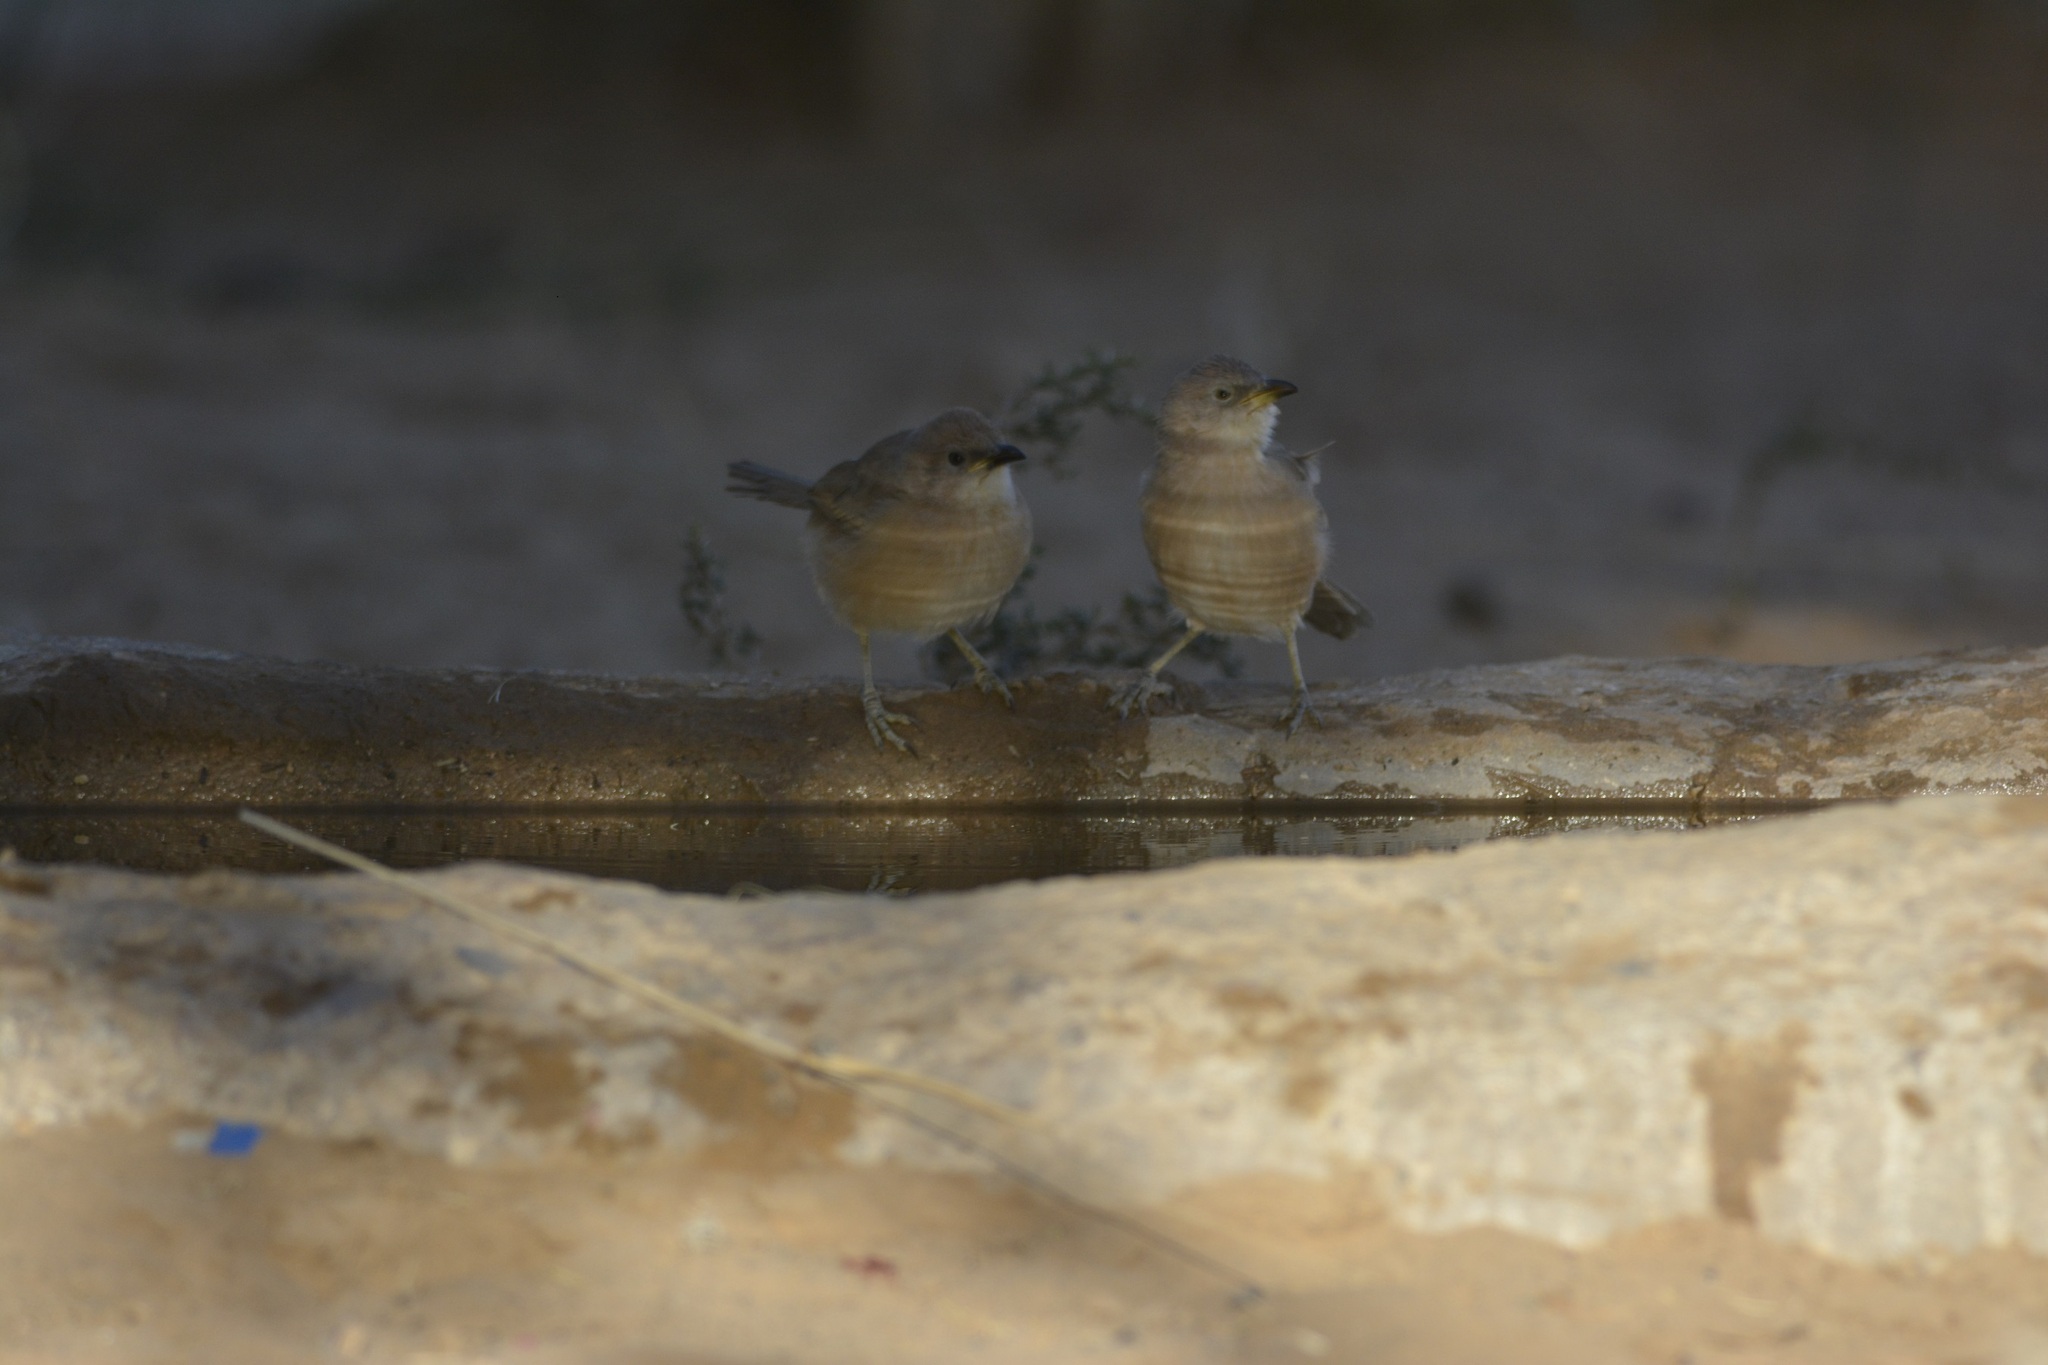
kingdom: Animalia
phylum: Chordata
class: Aves
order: Passeriformes
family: Leiothrichidae
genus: Turdoides
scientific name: Turdoides fulva
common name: Fulvous babbler
